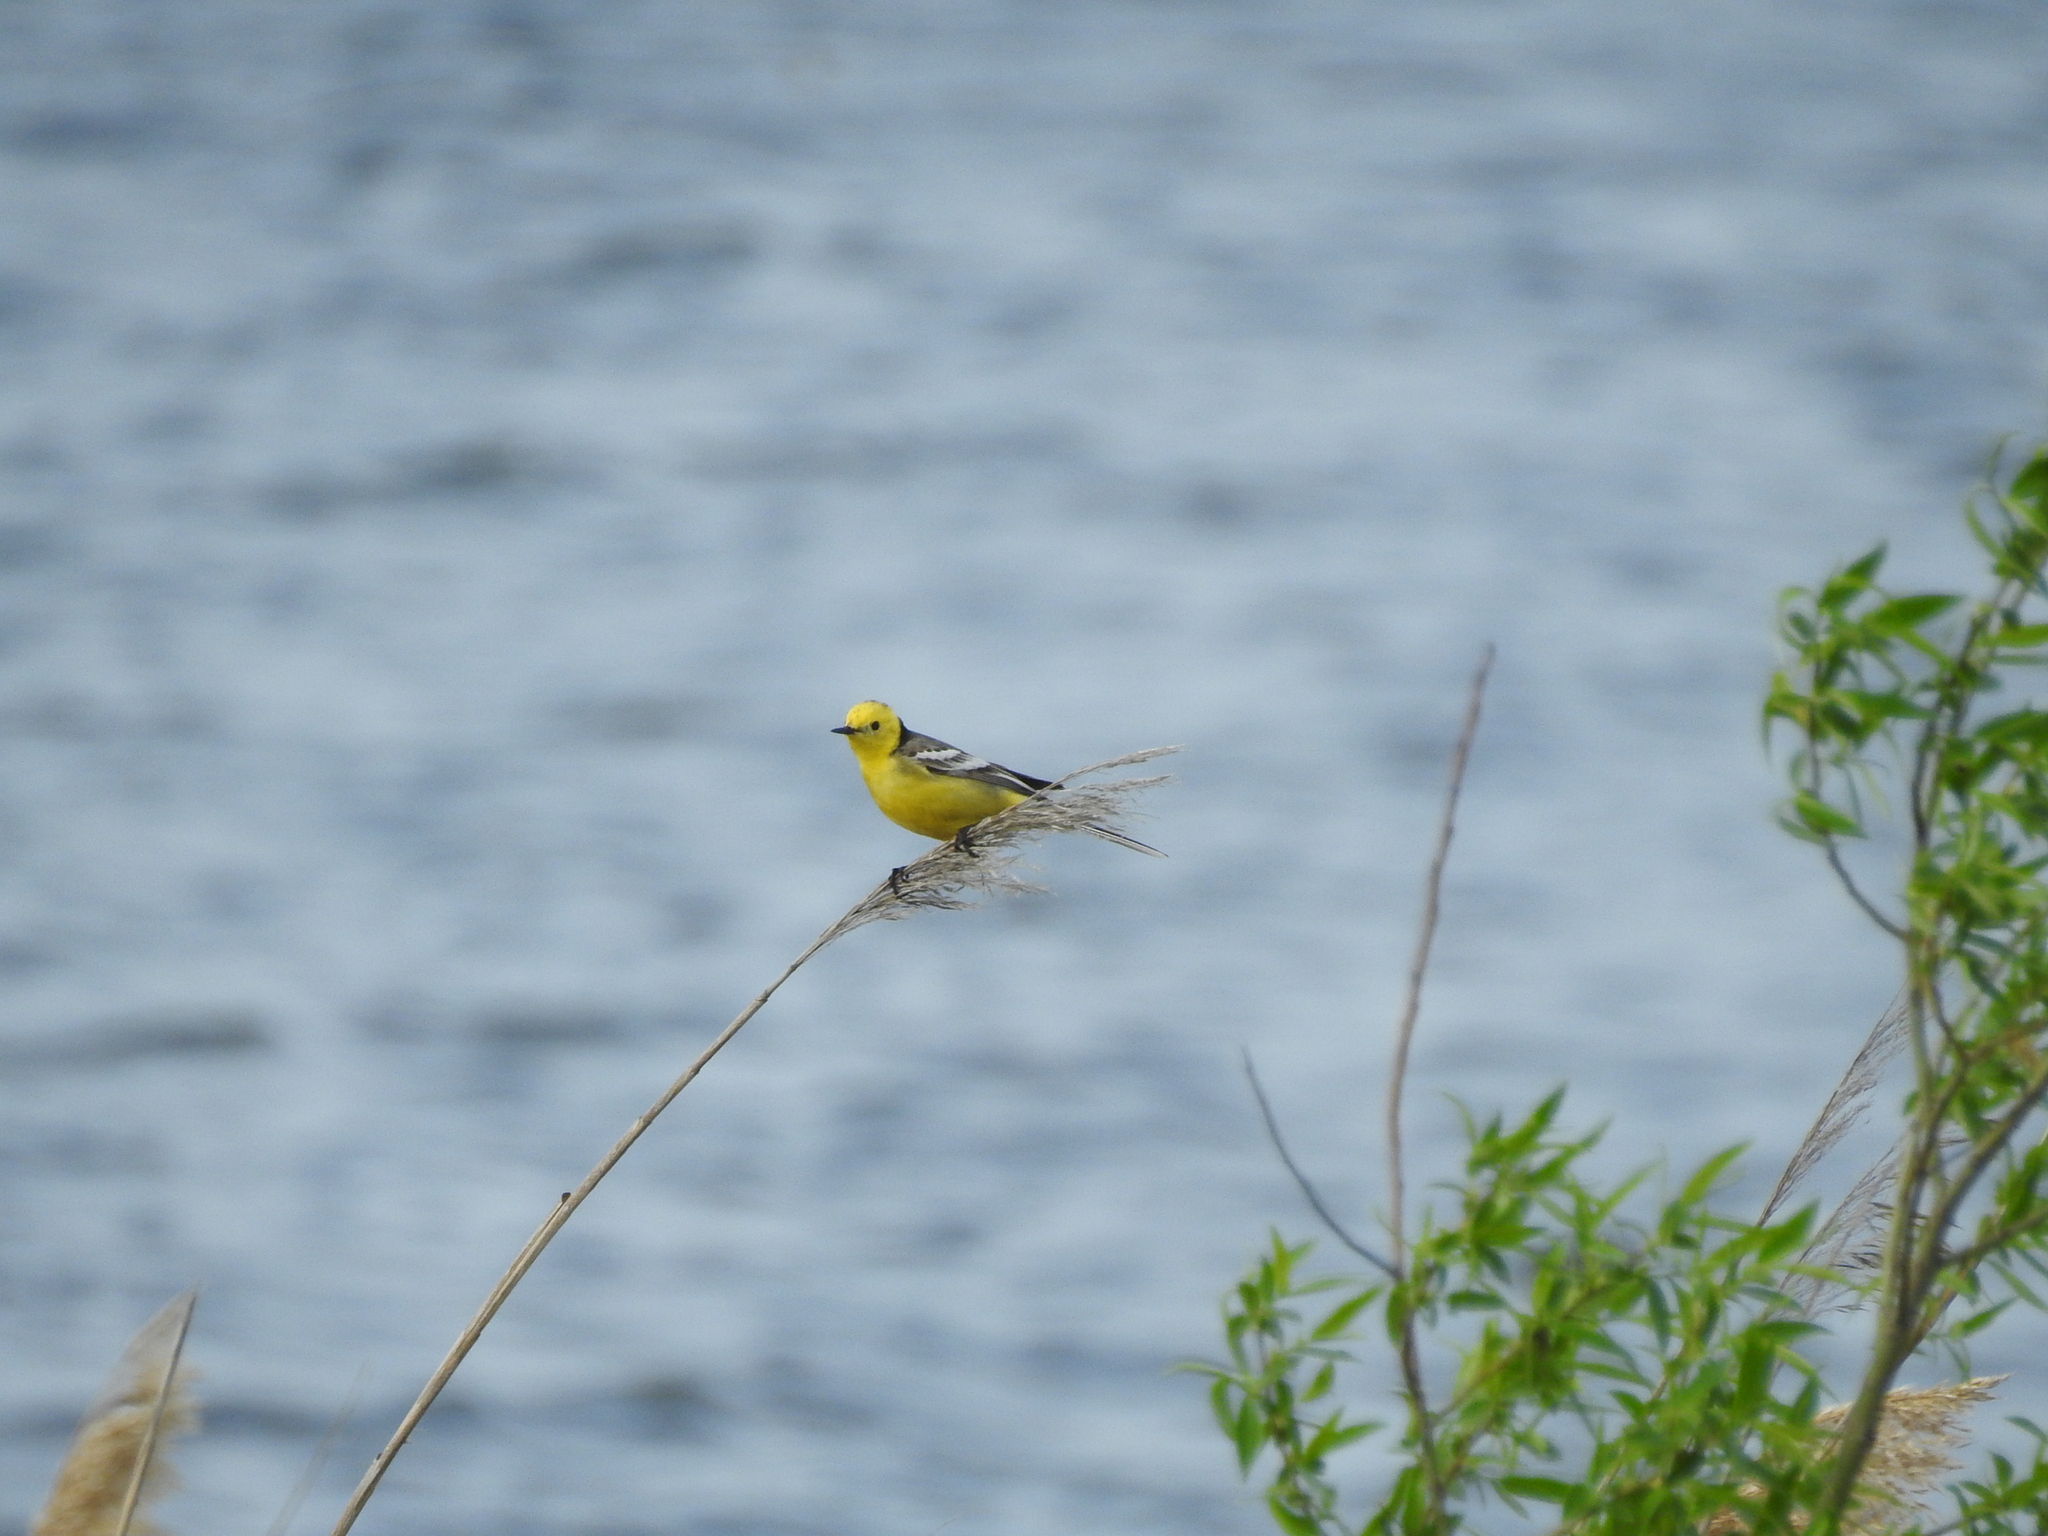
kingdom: Animalia
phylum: Chordata
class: Aves
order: Passeriformes
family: Motacillidae
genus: Motacilla
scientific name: Motacilla citreola
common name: Citrine wagtail
